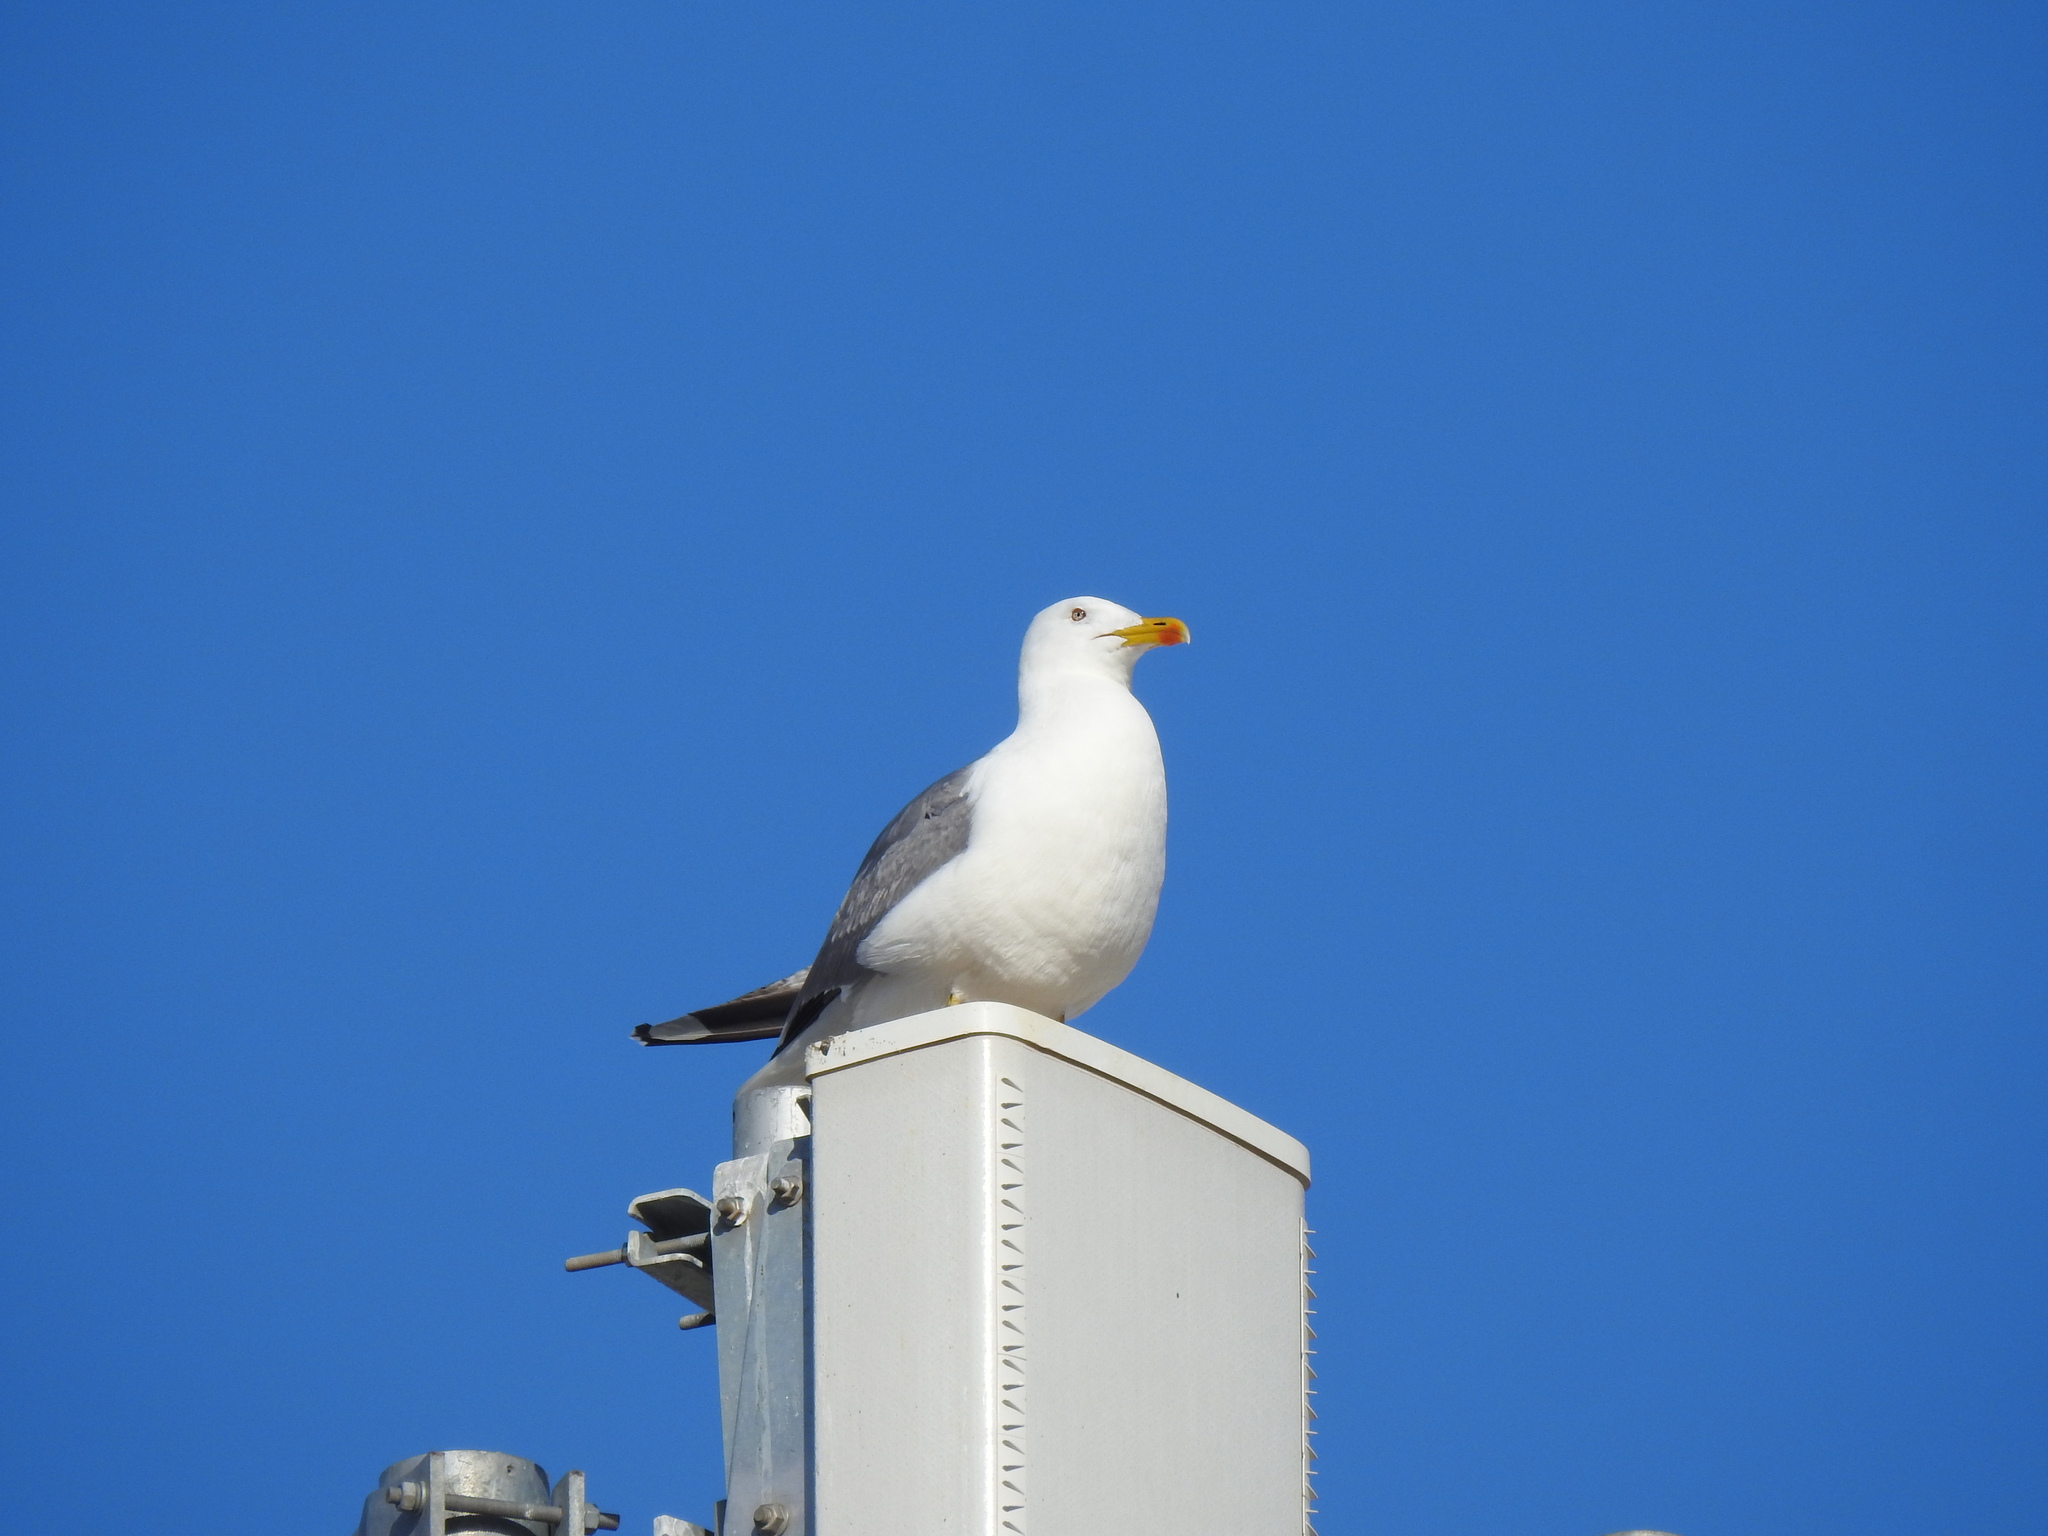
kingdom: Animalia
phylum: Chordata
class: Aves
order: Charadriiformes
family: Laridae
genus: Larus
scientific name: Larus michahellis
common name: Yellow-legged gull
